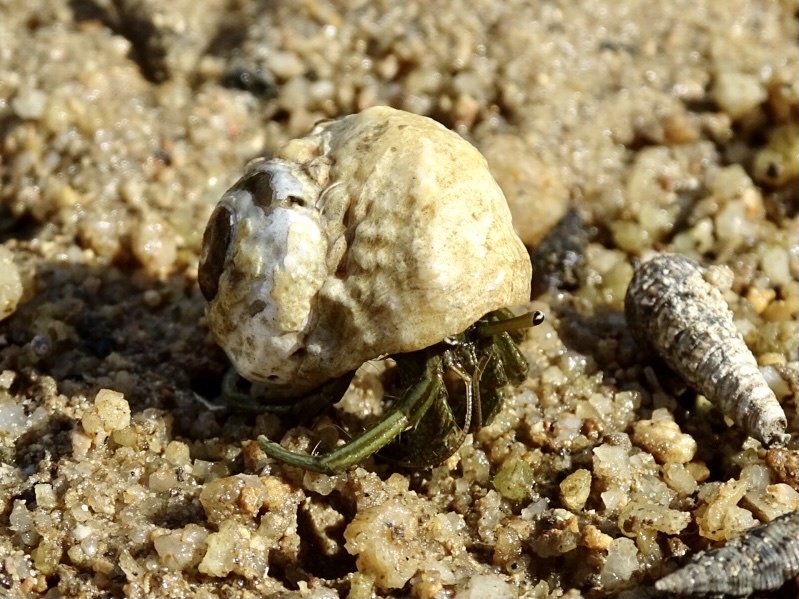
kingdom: Animalia
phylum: Arthropoda
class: Malacostraca
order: Decapoda
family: Diogenidae
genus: Clibanarius
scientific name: Clibanarius longitarsus
